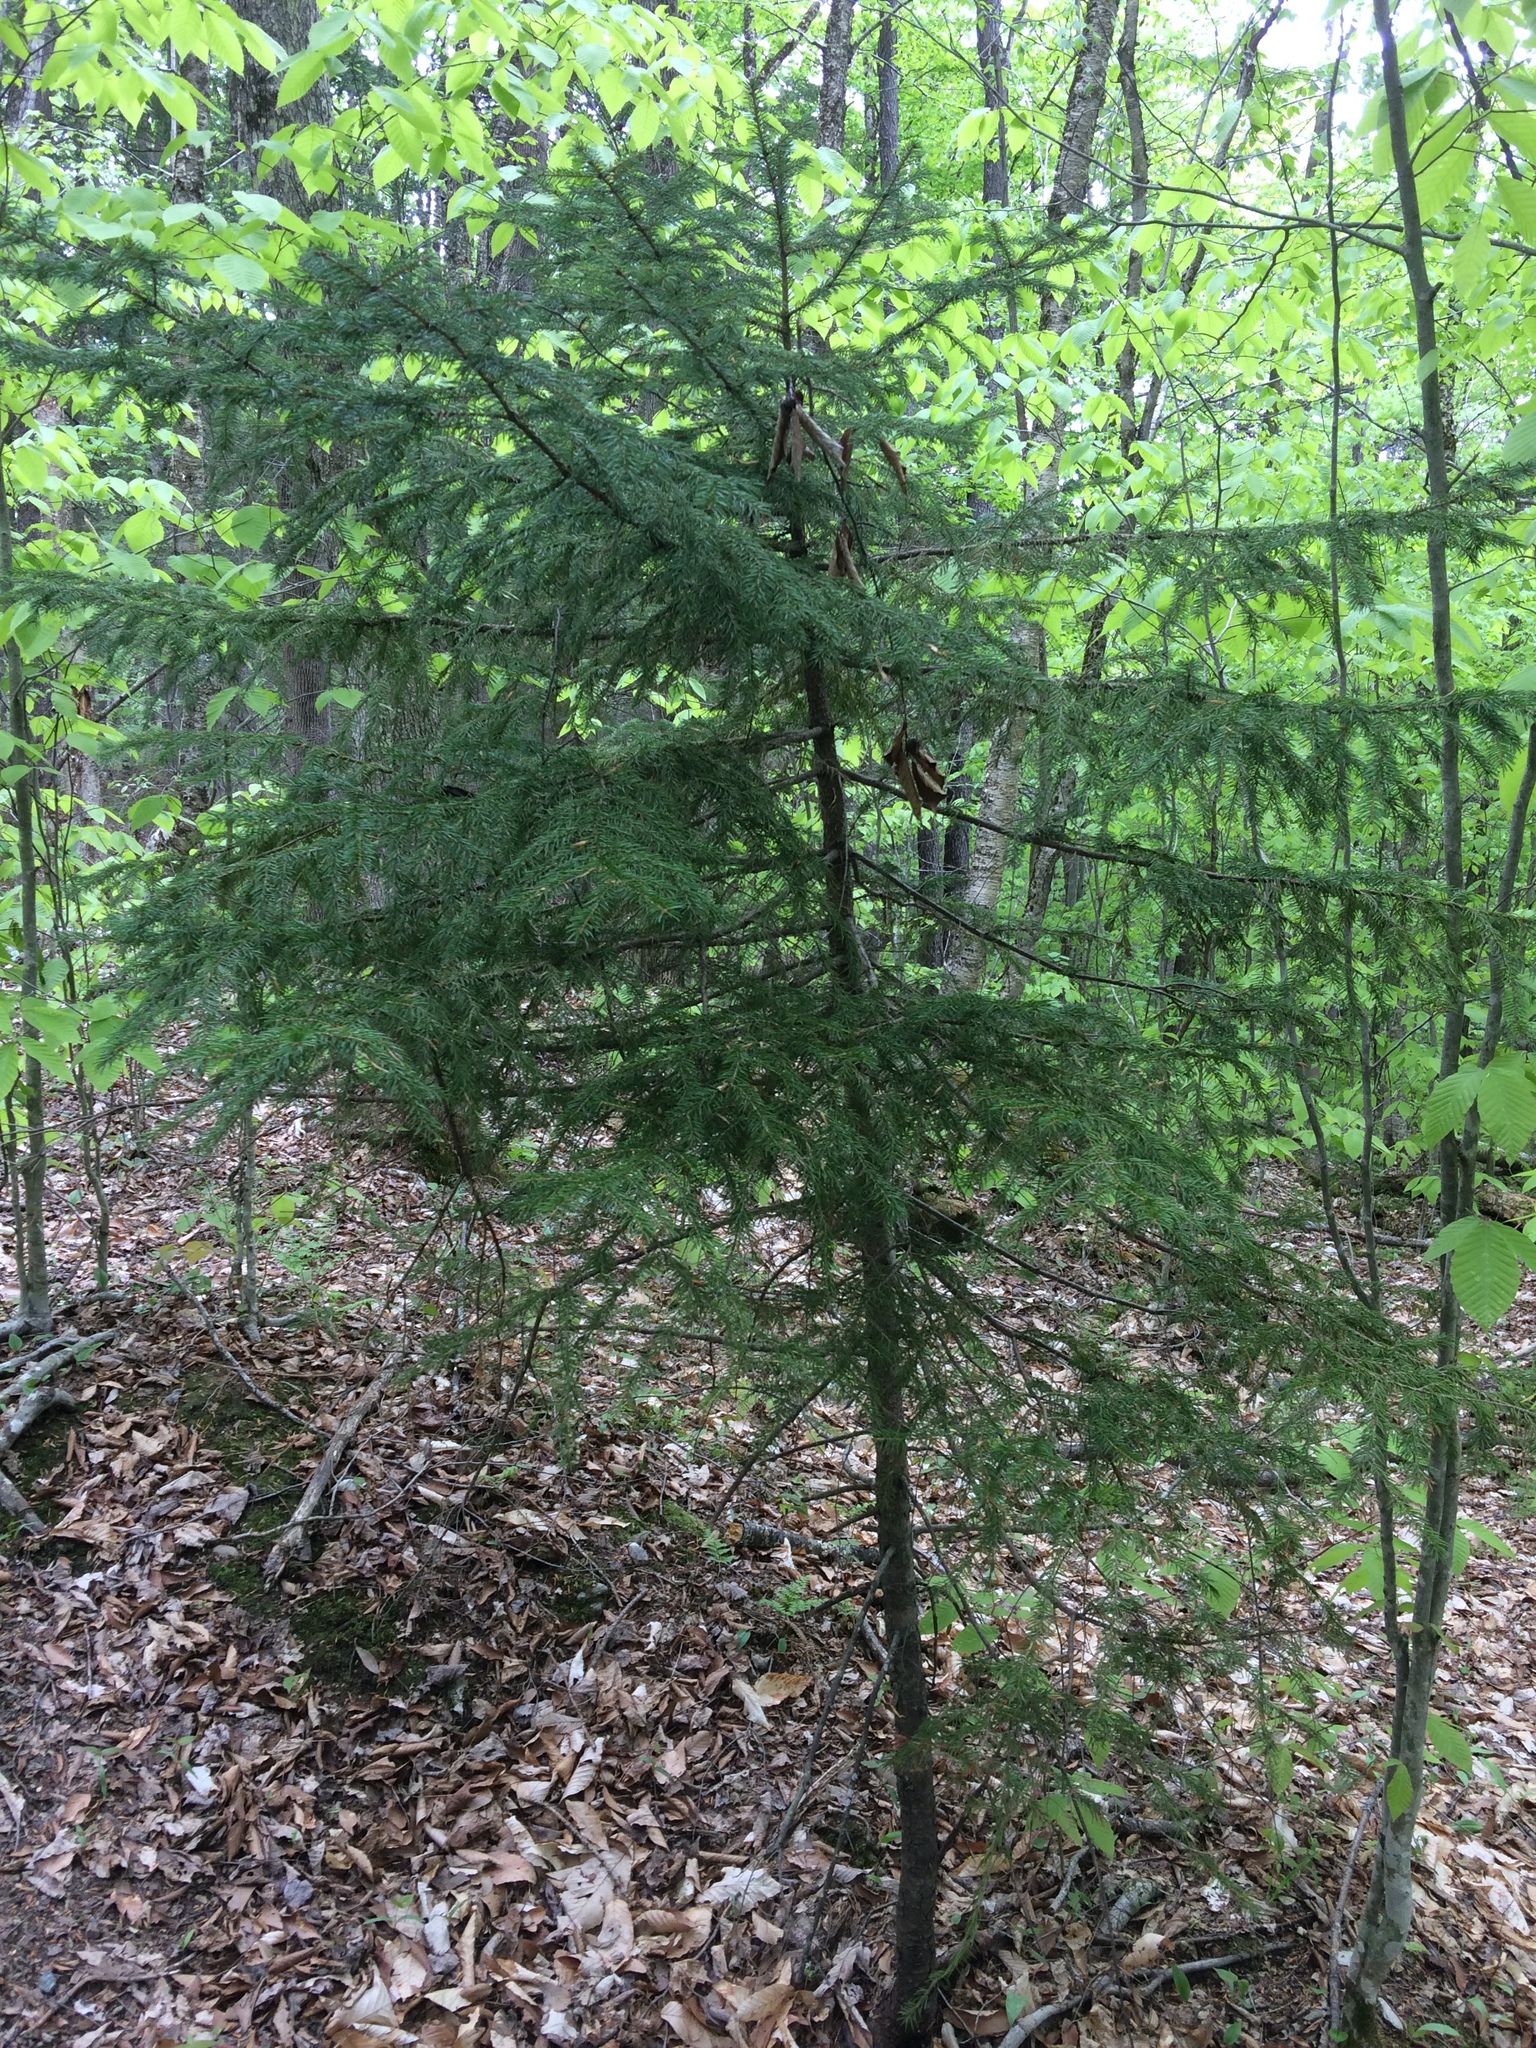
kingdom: Plantae
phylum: Tracheophyta
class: Pinopsida
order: Pinales
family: Pinaceae
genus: Picea
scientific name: Picea rubens
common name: Red spruce
